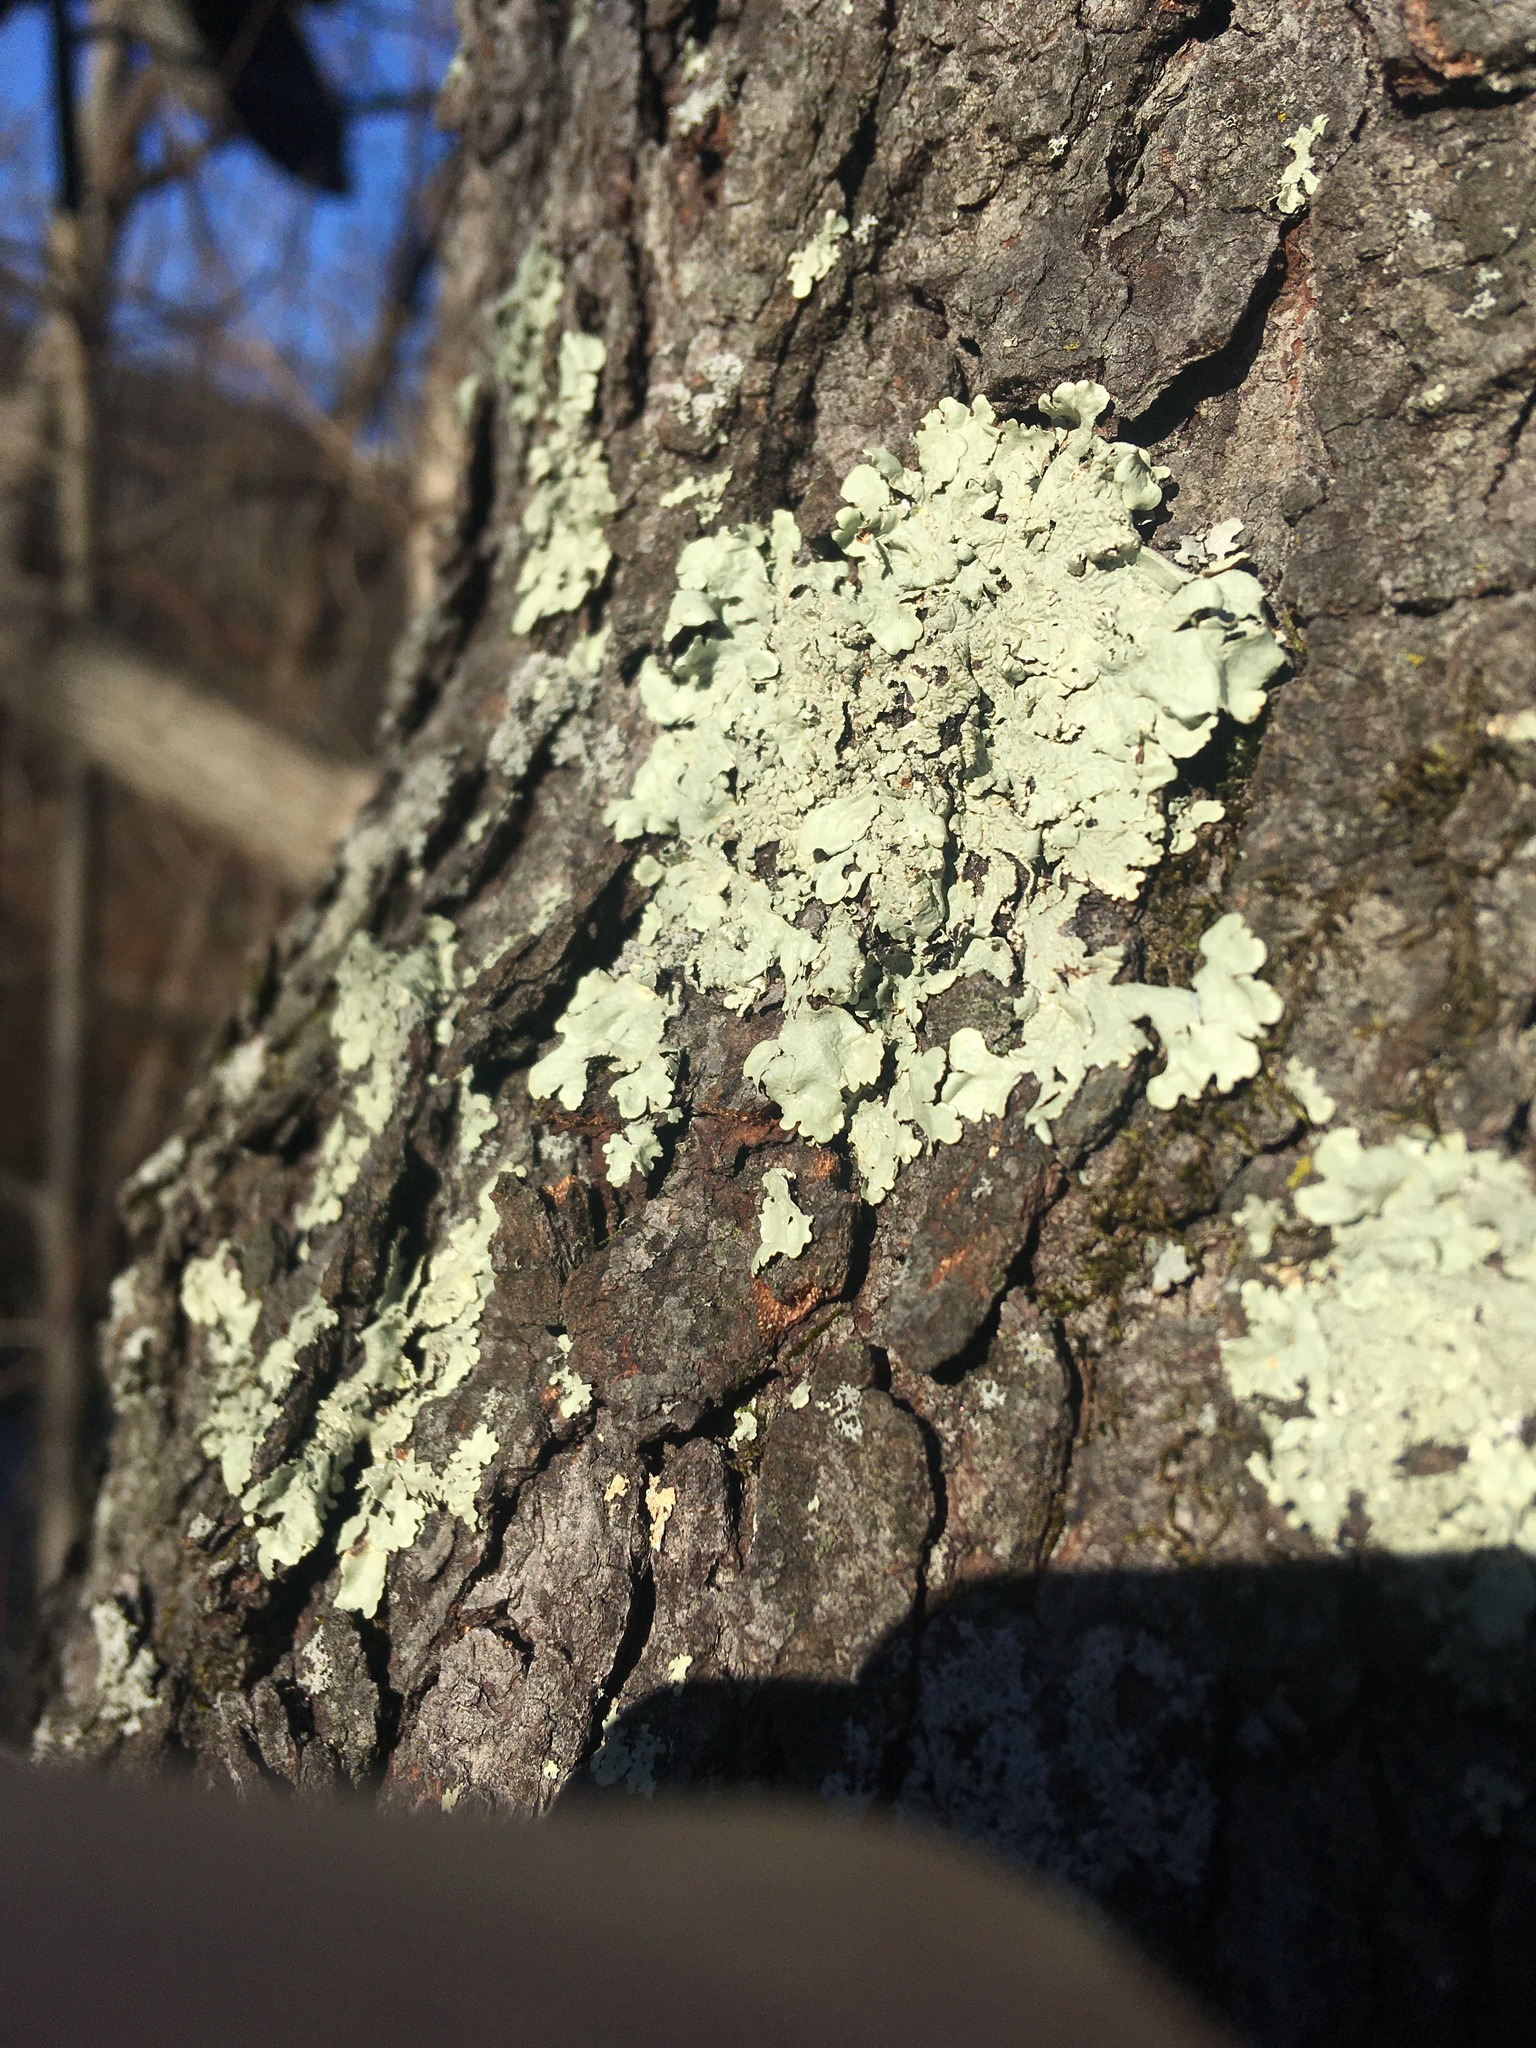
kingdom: Fungi
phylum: Ascomycota
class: Lecanoromycetes
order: Lecanorales
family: Parmeliaceae
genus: Flavoparmelia
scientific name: Flavoparmelia caperata
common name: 40-mile per hour lichen
